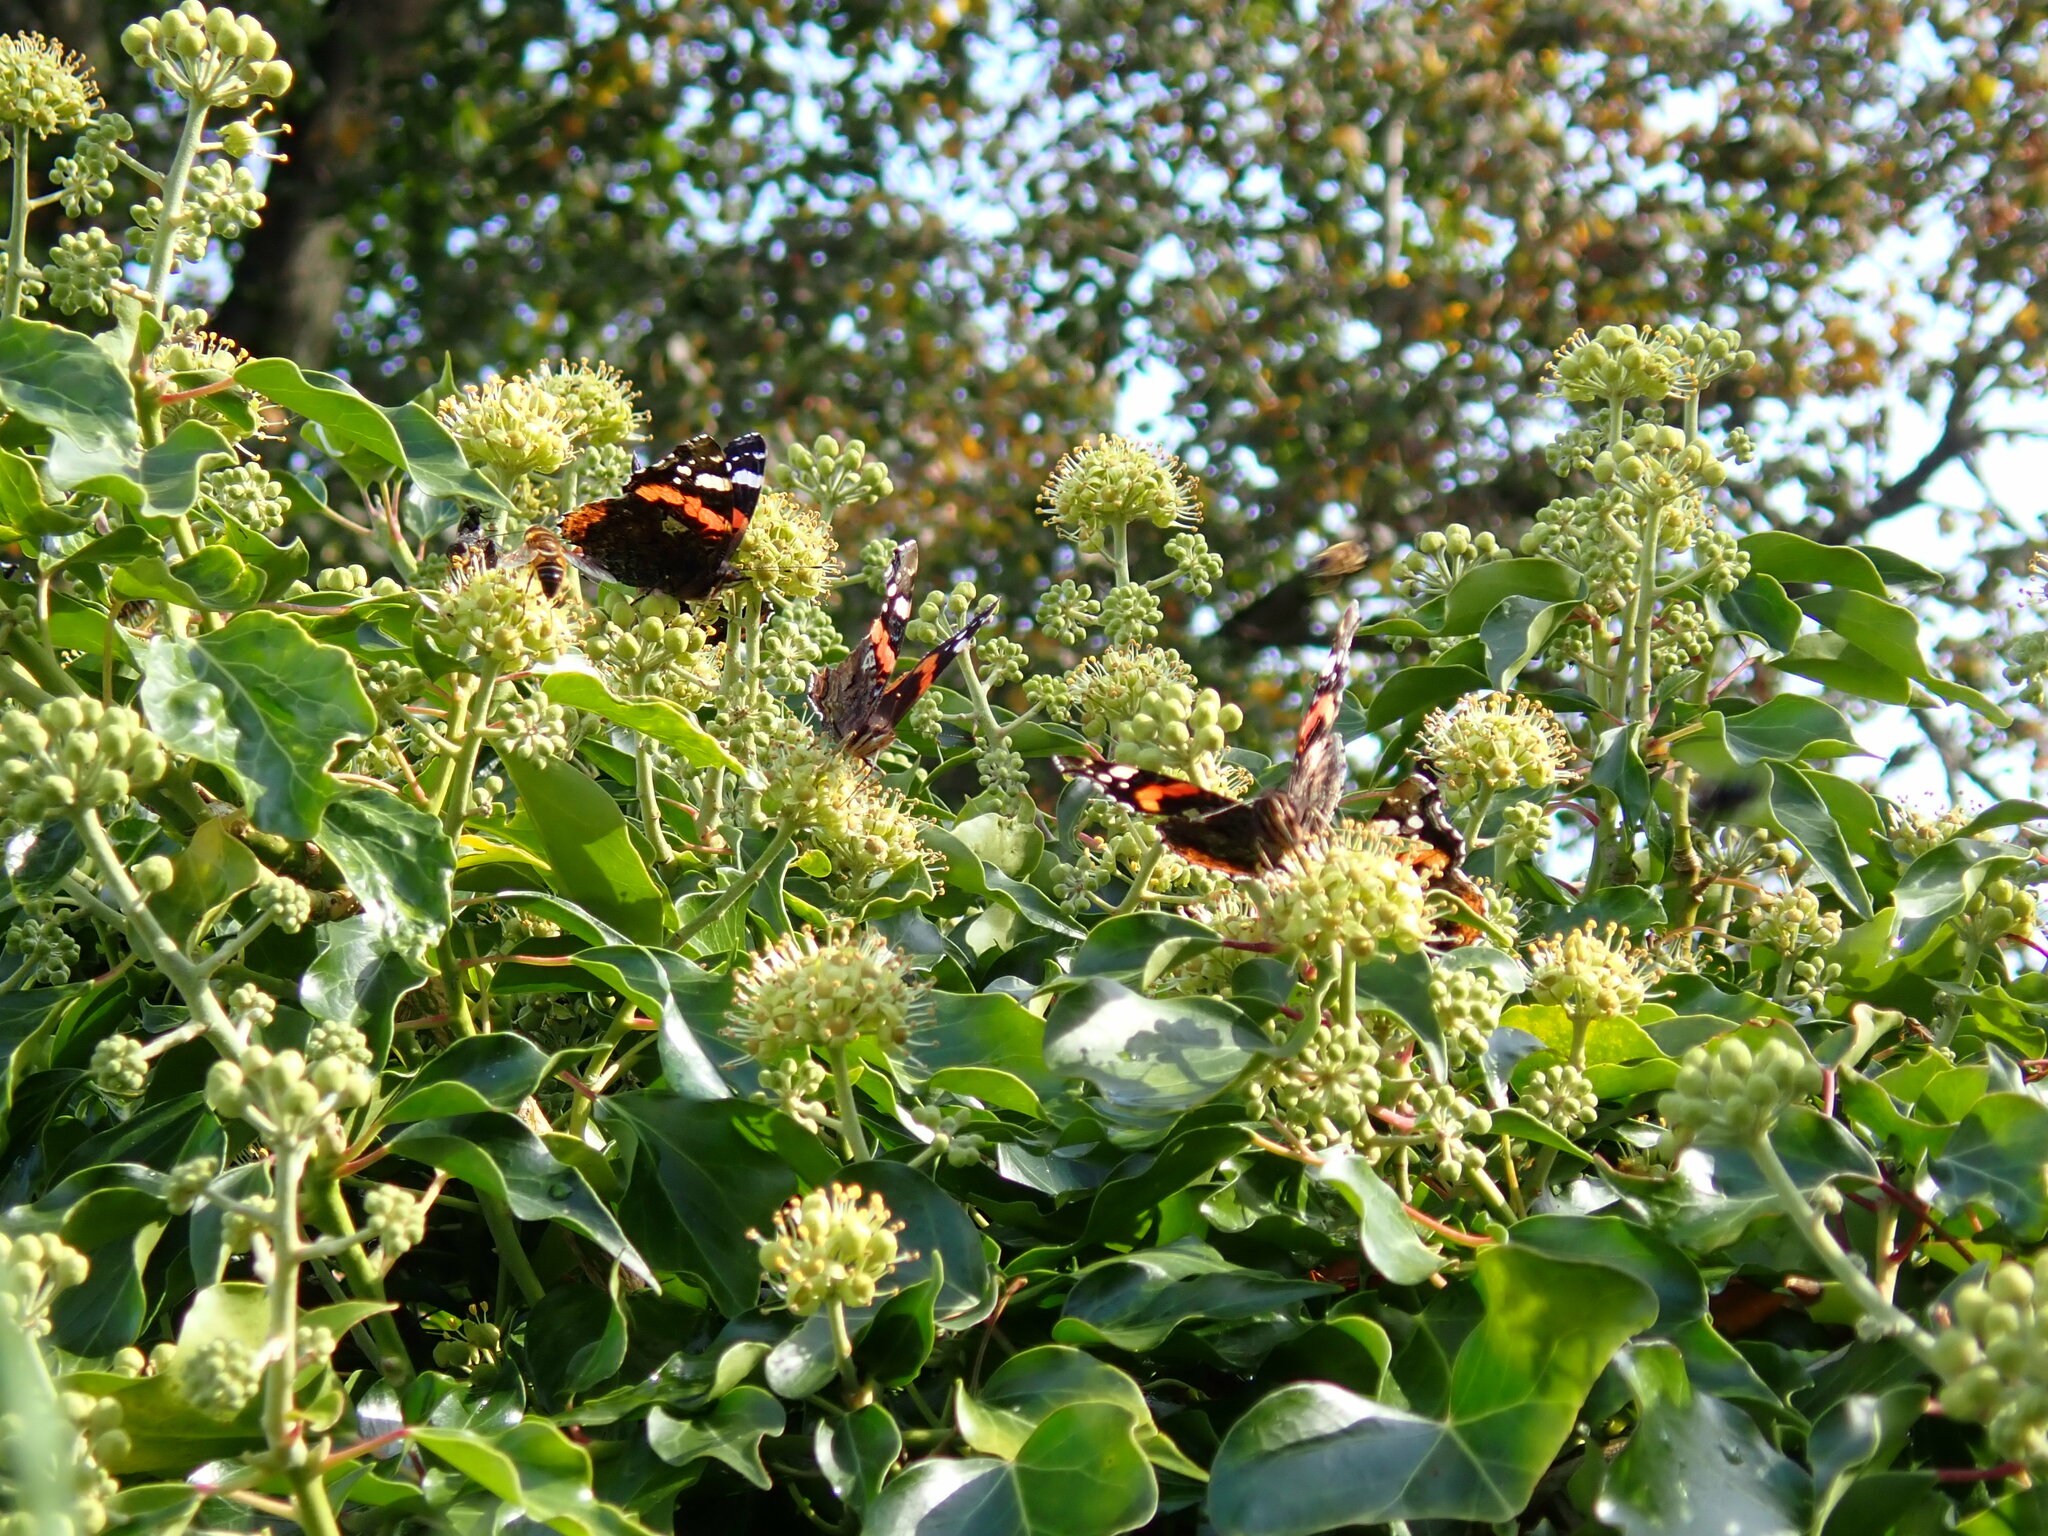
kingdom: Animalia
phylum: Arthropoda
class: Insecta
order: Lepidoptera
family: Nymphalidae
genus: Vanessa
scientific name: Vanessa atalanta
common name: Red admiral
